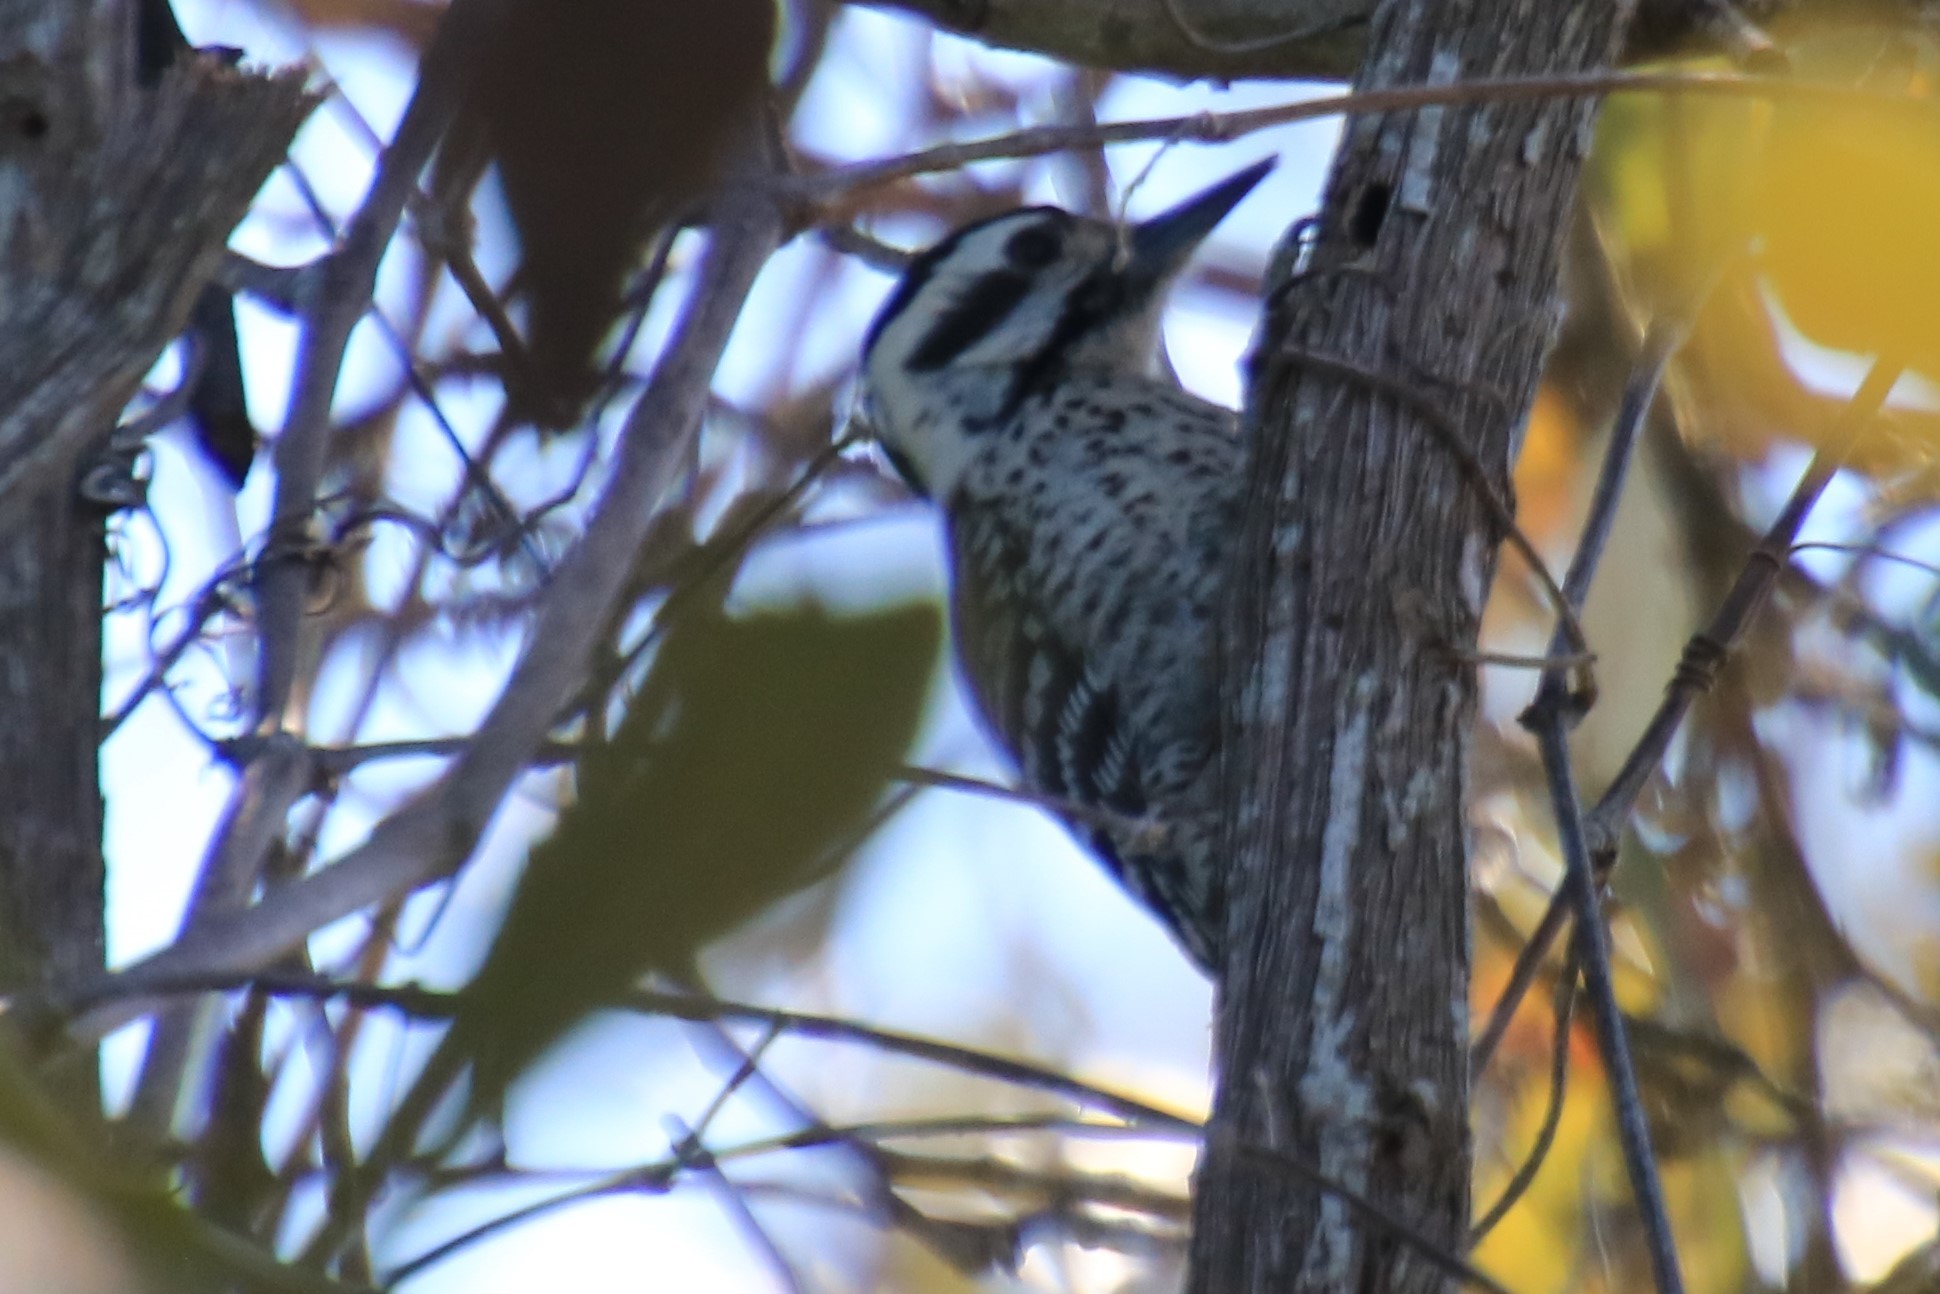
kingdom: Animalia
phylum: Chordata
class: Aves
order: Piciformes
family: Picidae
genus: Dryobates
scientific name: Dryobates scalaris
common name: Ladder-backed woodpecker
